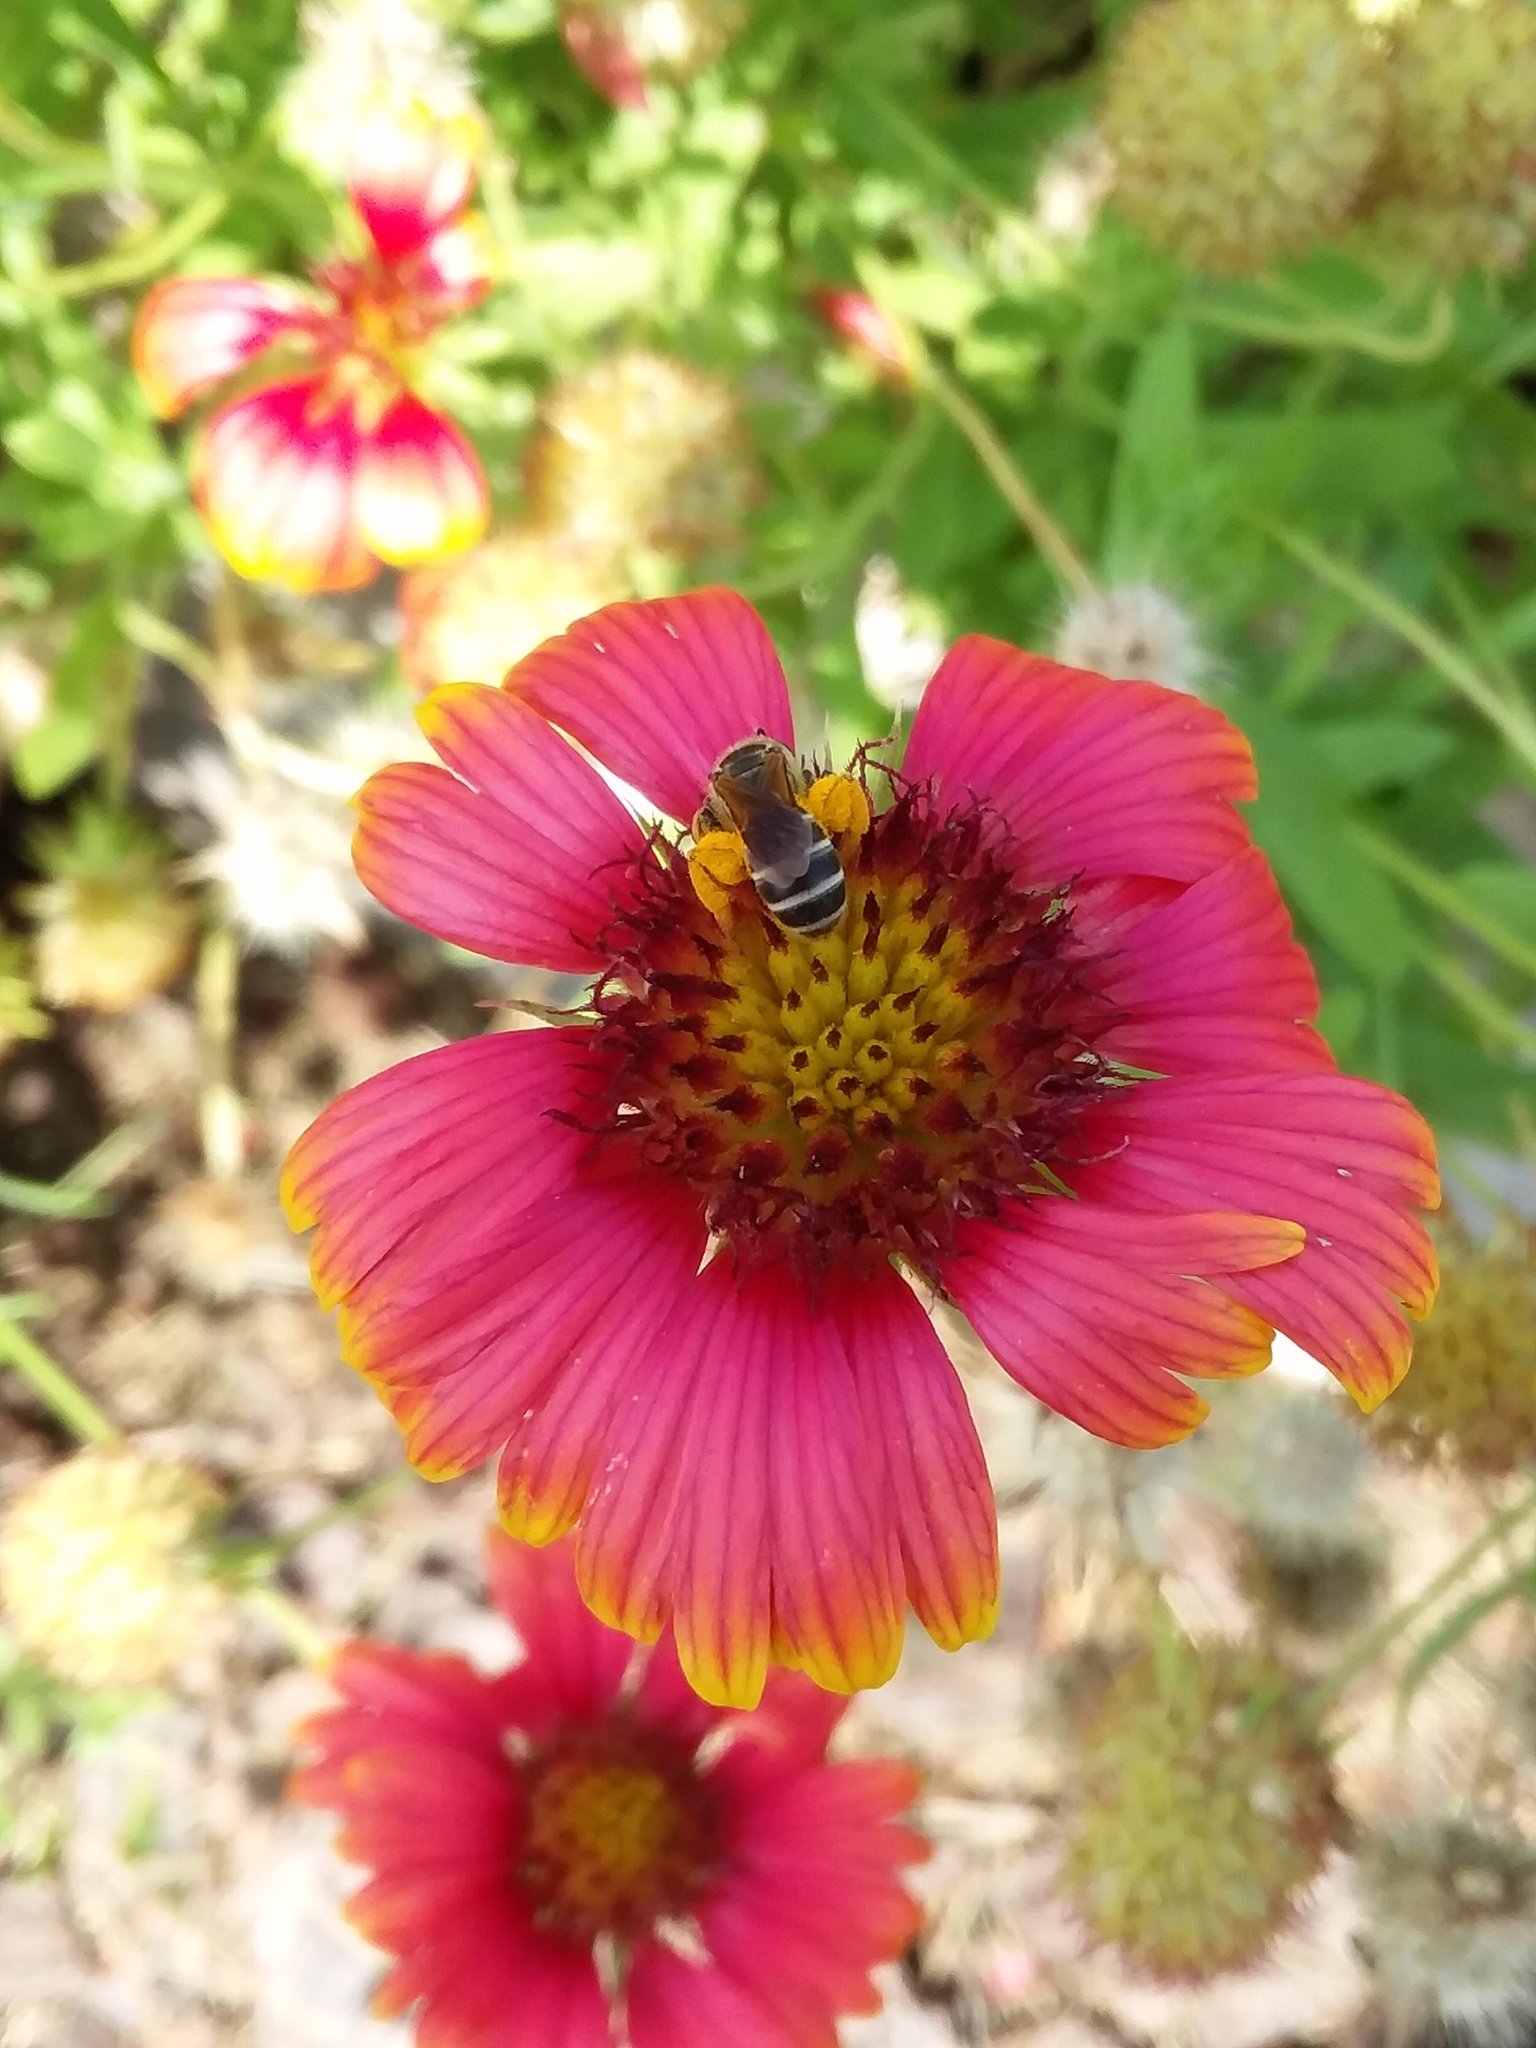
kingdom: Animalia
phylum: Arthropoda
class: Insecta
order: Hymenoptera
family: Halictidae
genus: Halictus
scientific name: Halictus poeyi
